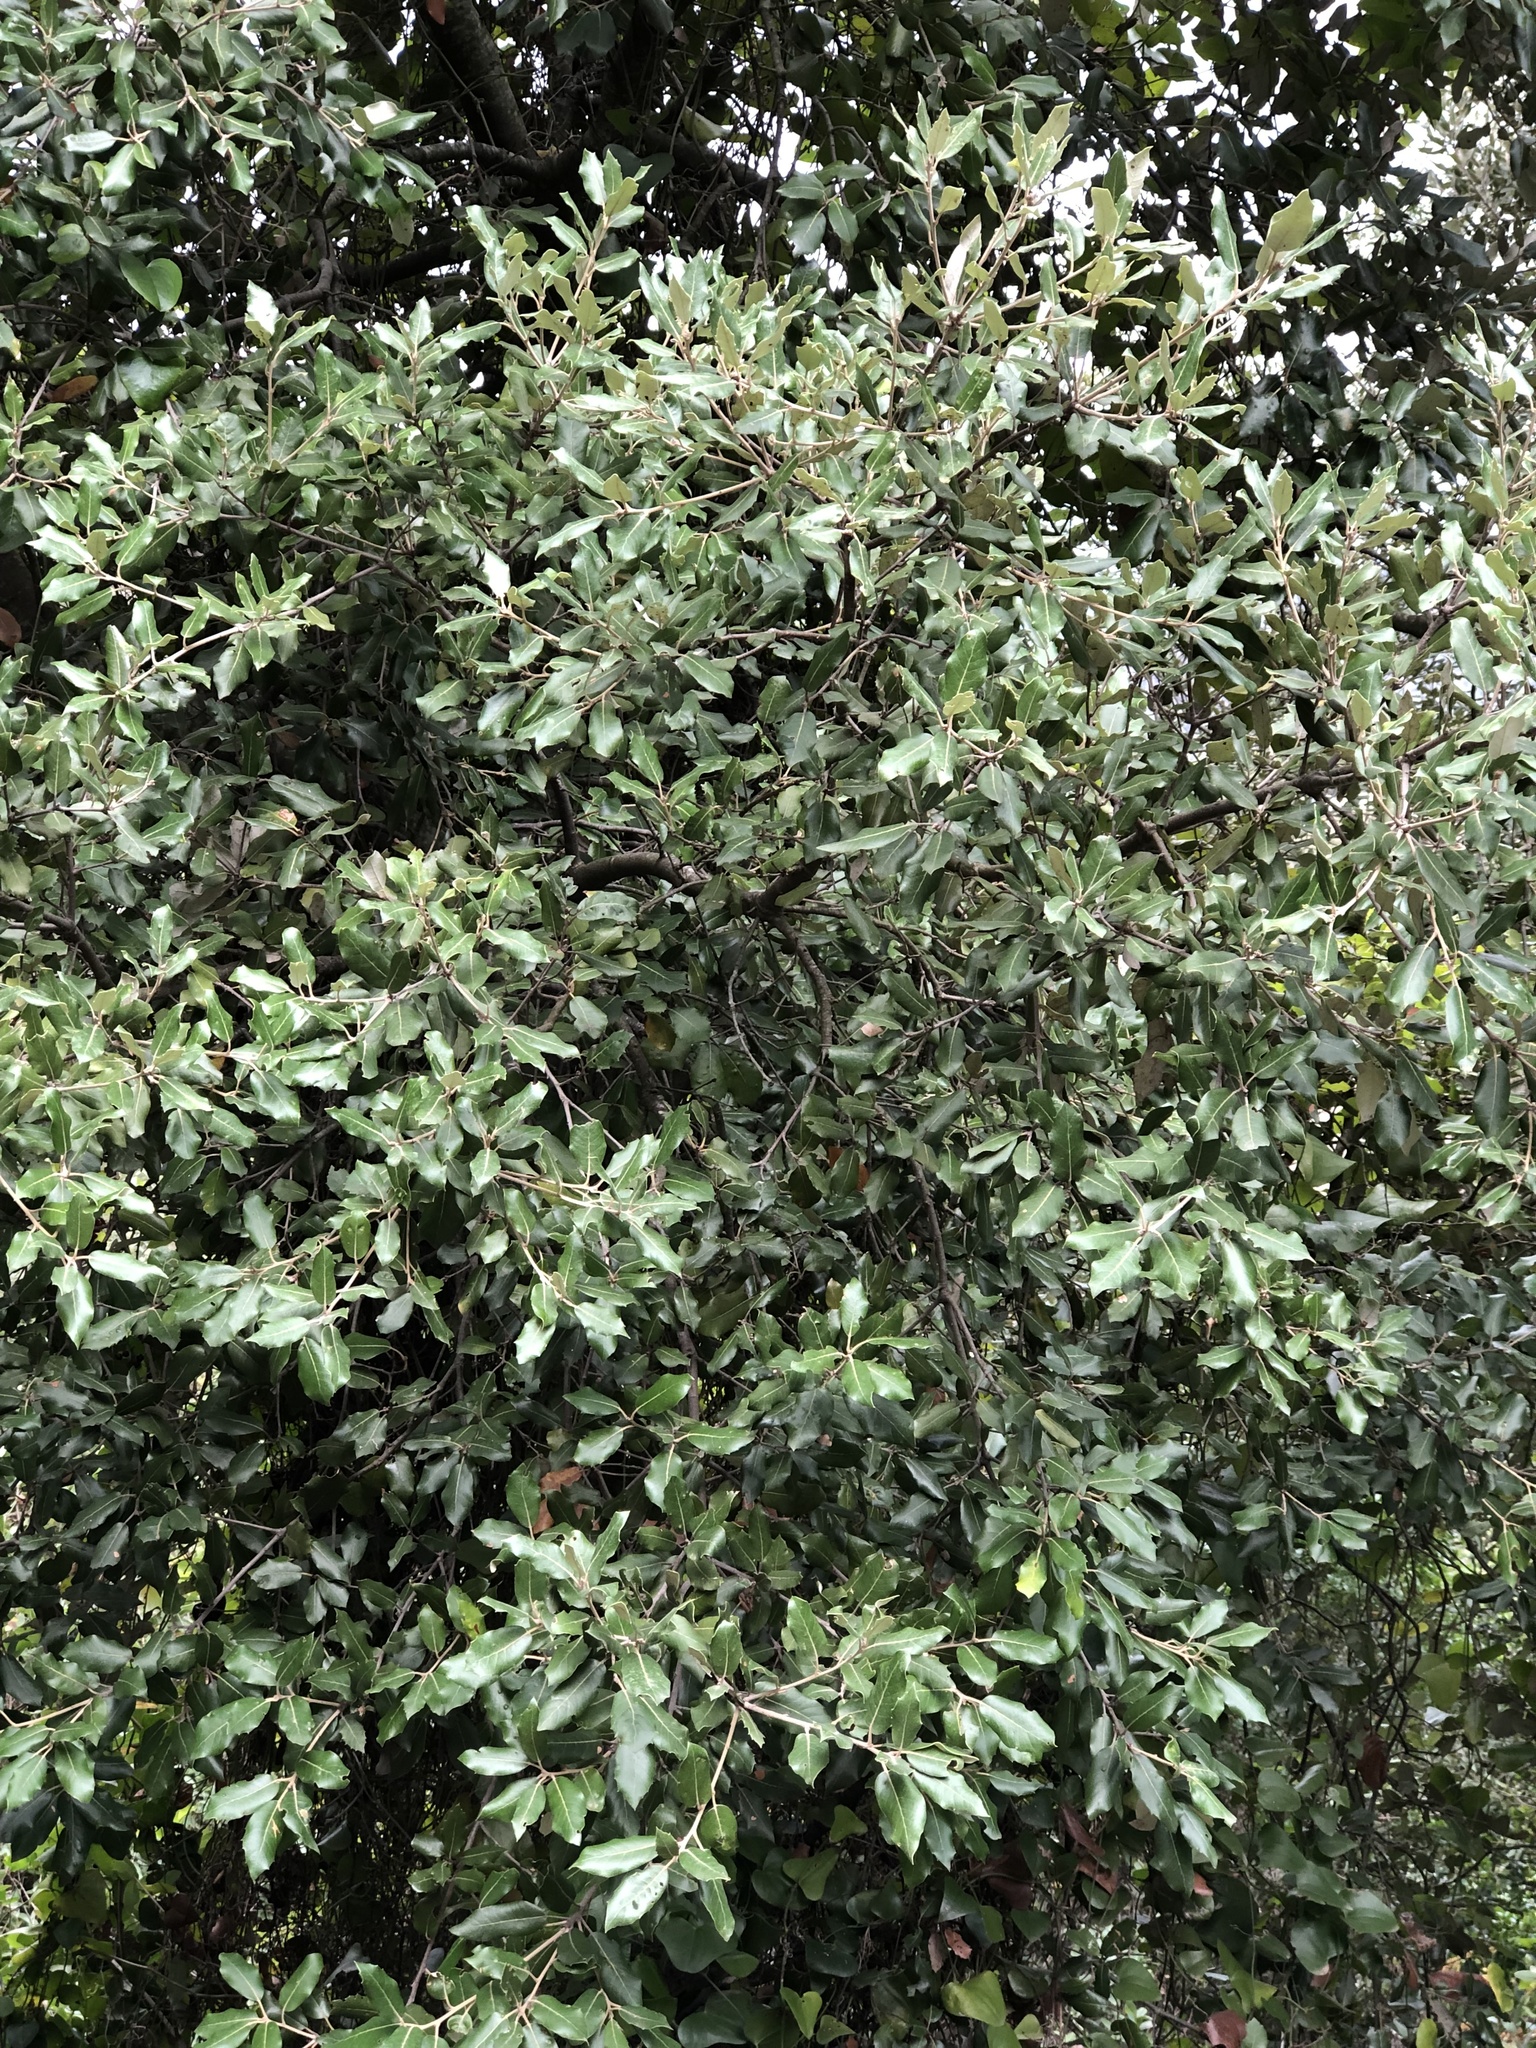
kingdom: Plantae
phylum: Tracheophyta
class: Magnoliopsida
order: Fagales
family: Fagaceae
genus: Quercus
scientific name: Quercus ilex
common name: Evergreen oak
